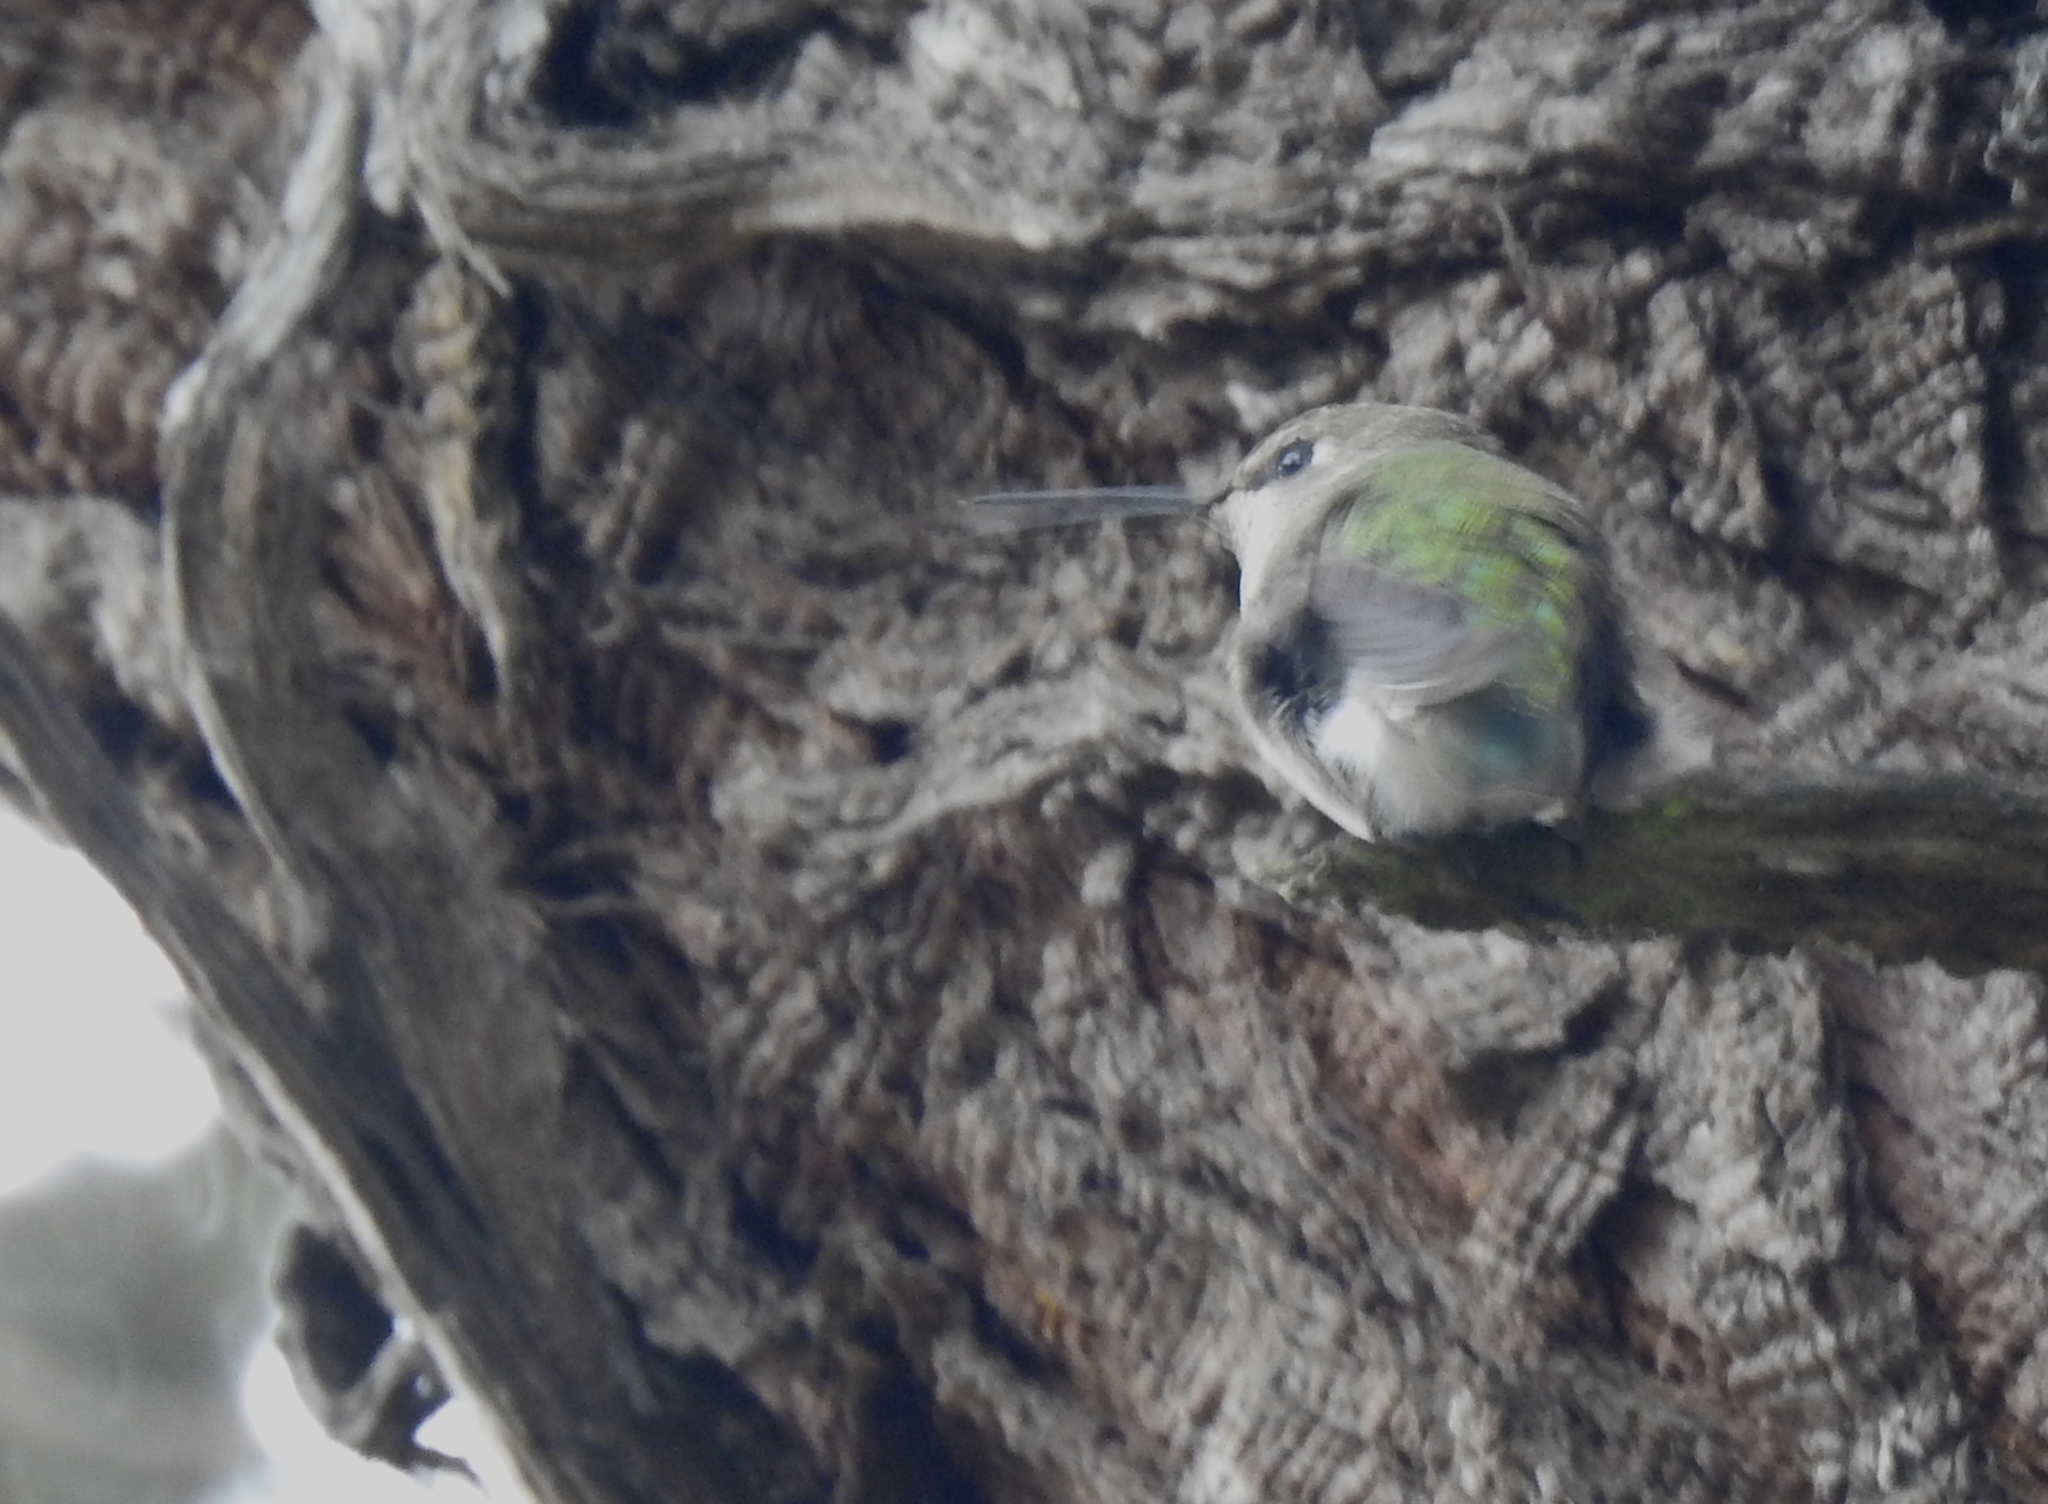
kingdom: Animalia
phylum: Chordata
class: Aves
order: Apodiformes
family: Trochilidae
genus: Calypte
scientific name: Calypte anna
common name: Anna's hummingbird
